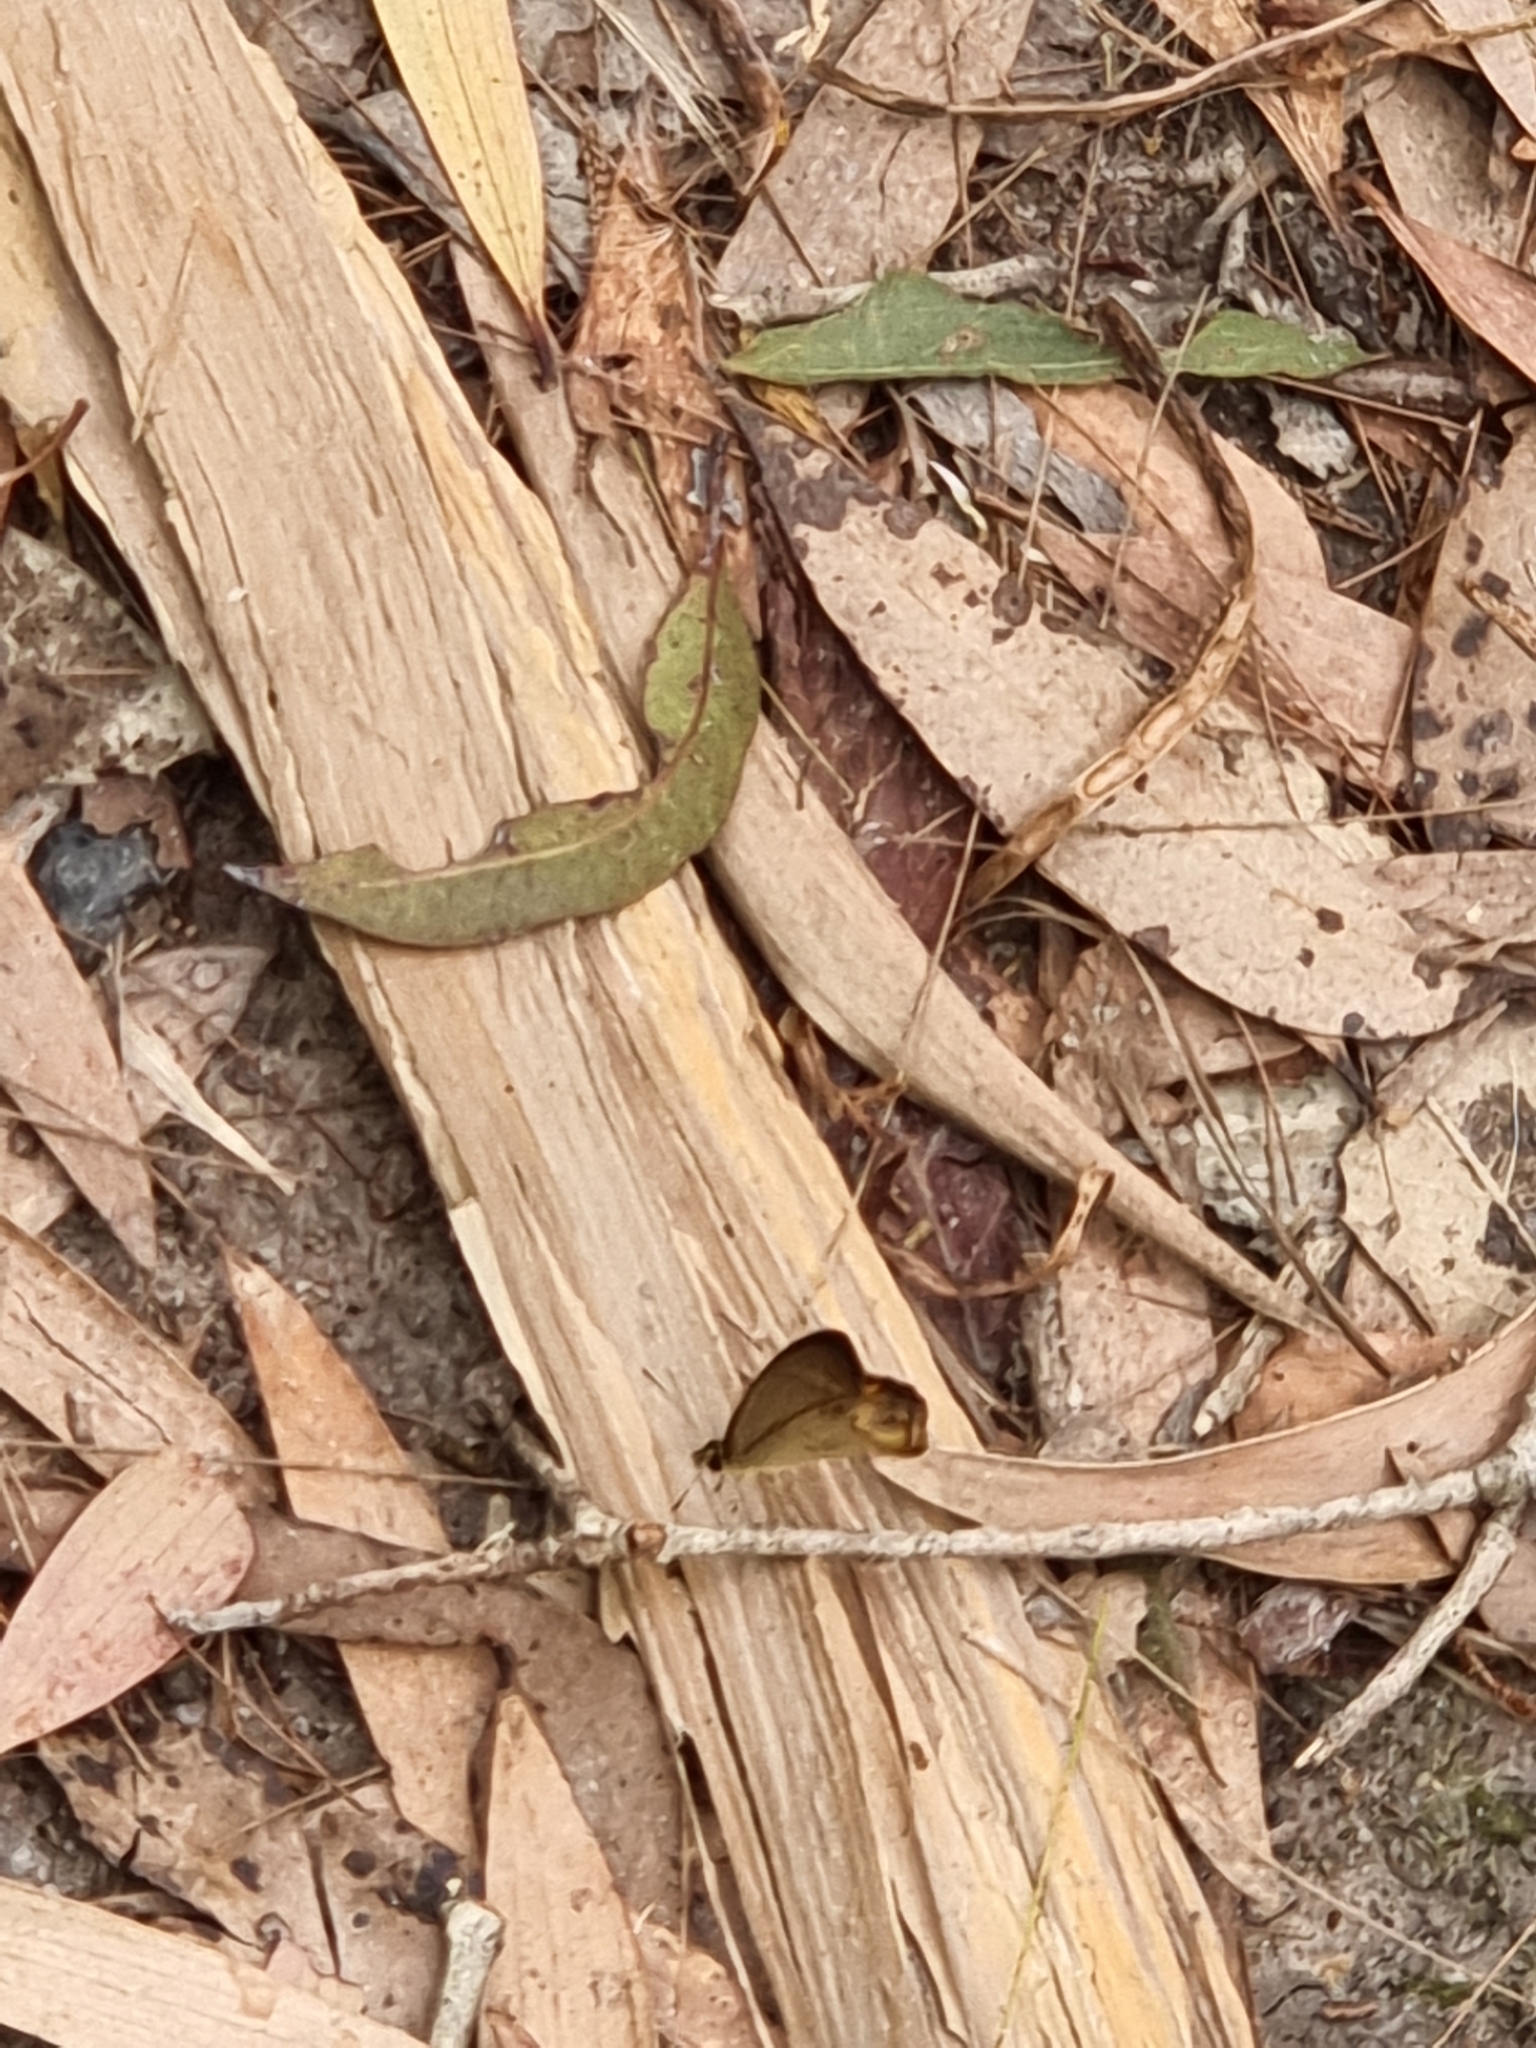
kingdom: Animalia
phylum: Arthropoda
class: Insecta
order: Lepidoptera
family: Nymphalidae
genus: Hypocysta
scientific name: Hypocysta metirius
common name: Brown ringlet
